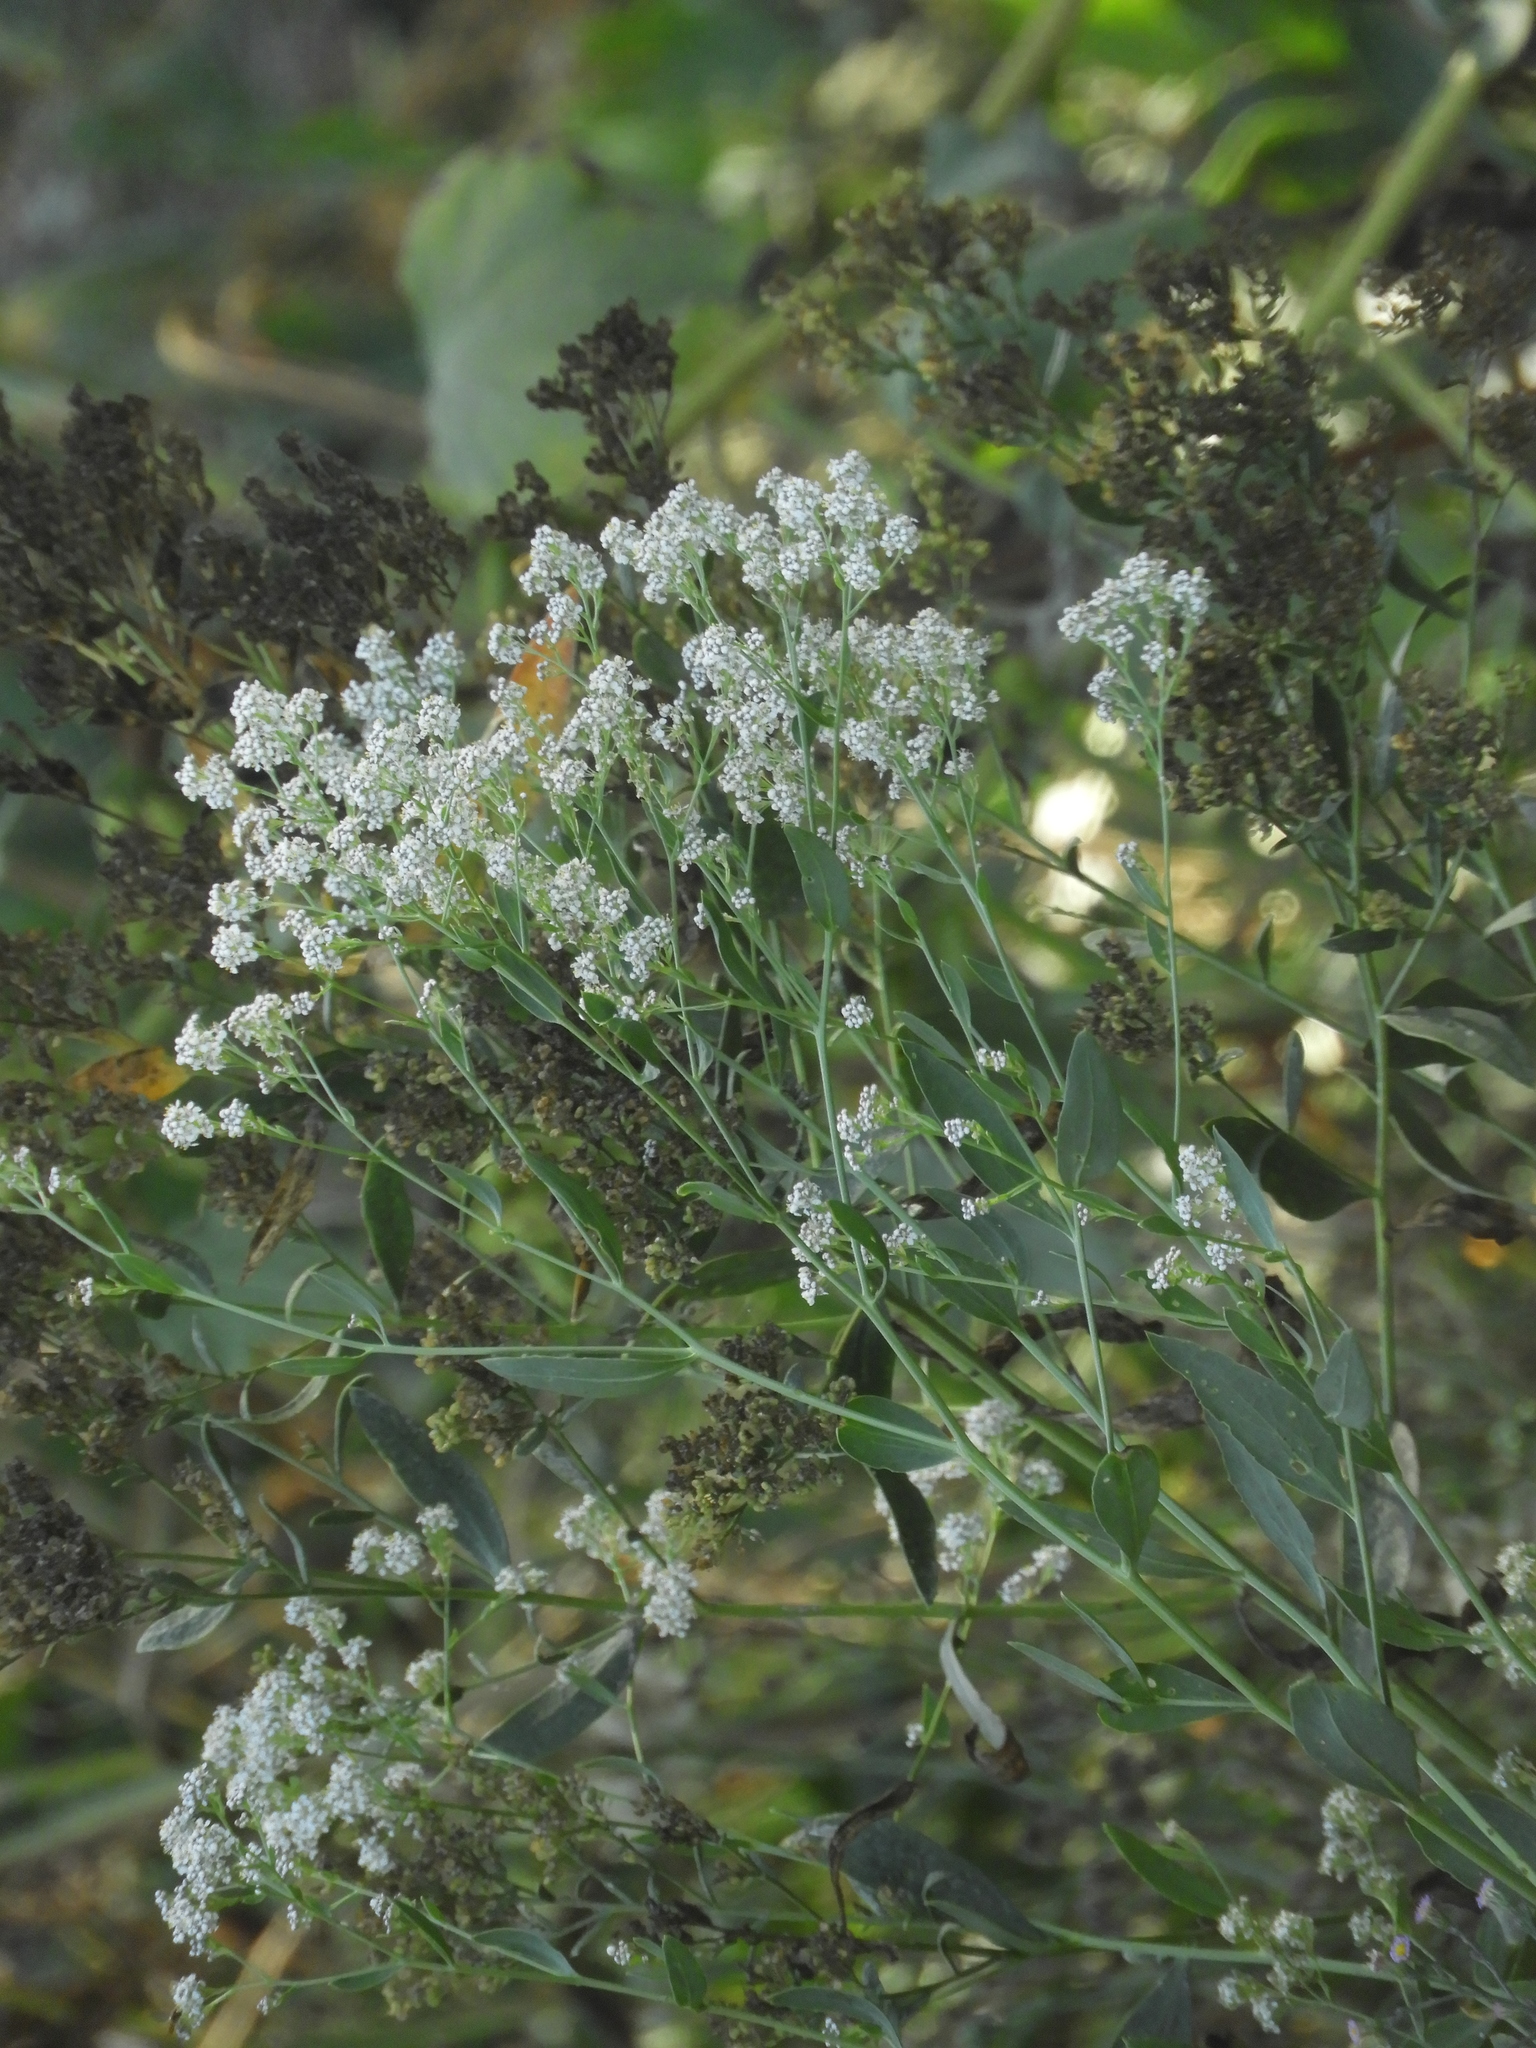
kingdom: Plantae
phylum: Tracheophyta
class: Magnoliopsida
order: Brassicales
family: Brassicaceae
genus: Lepidium
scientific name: Lepidium latifolium
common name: Dittander
